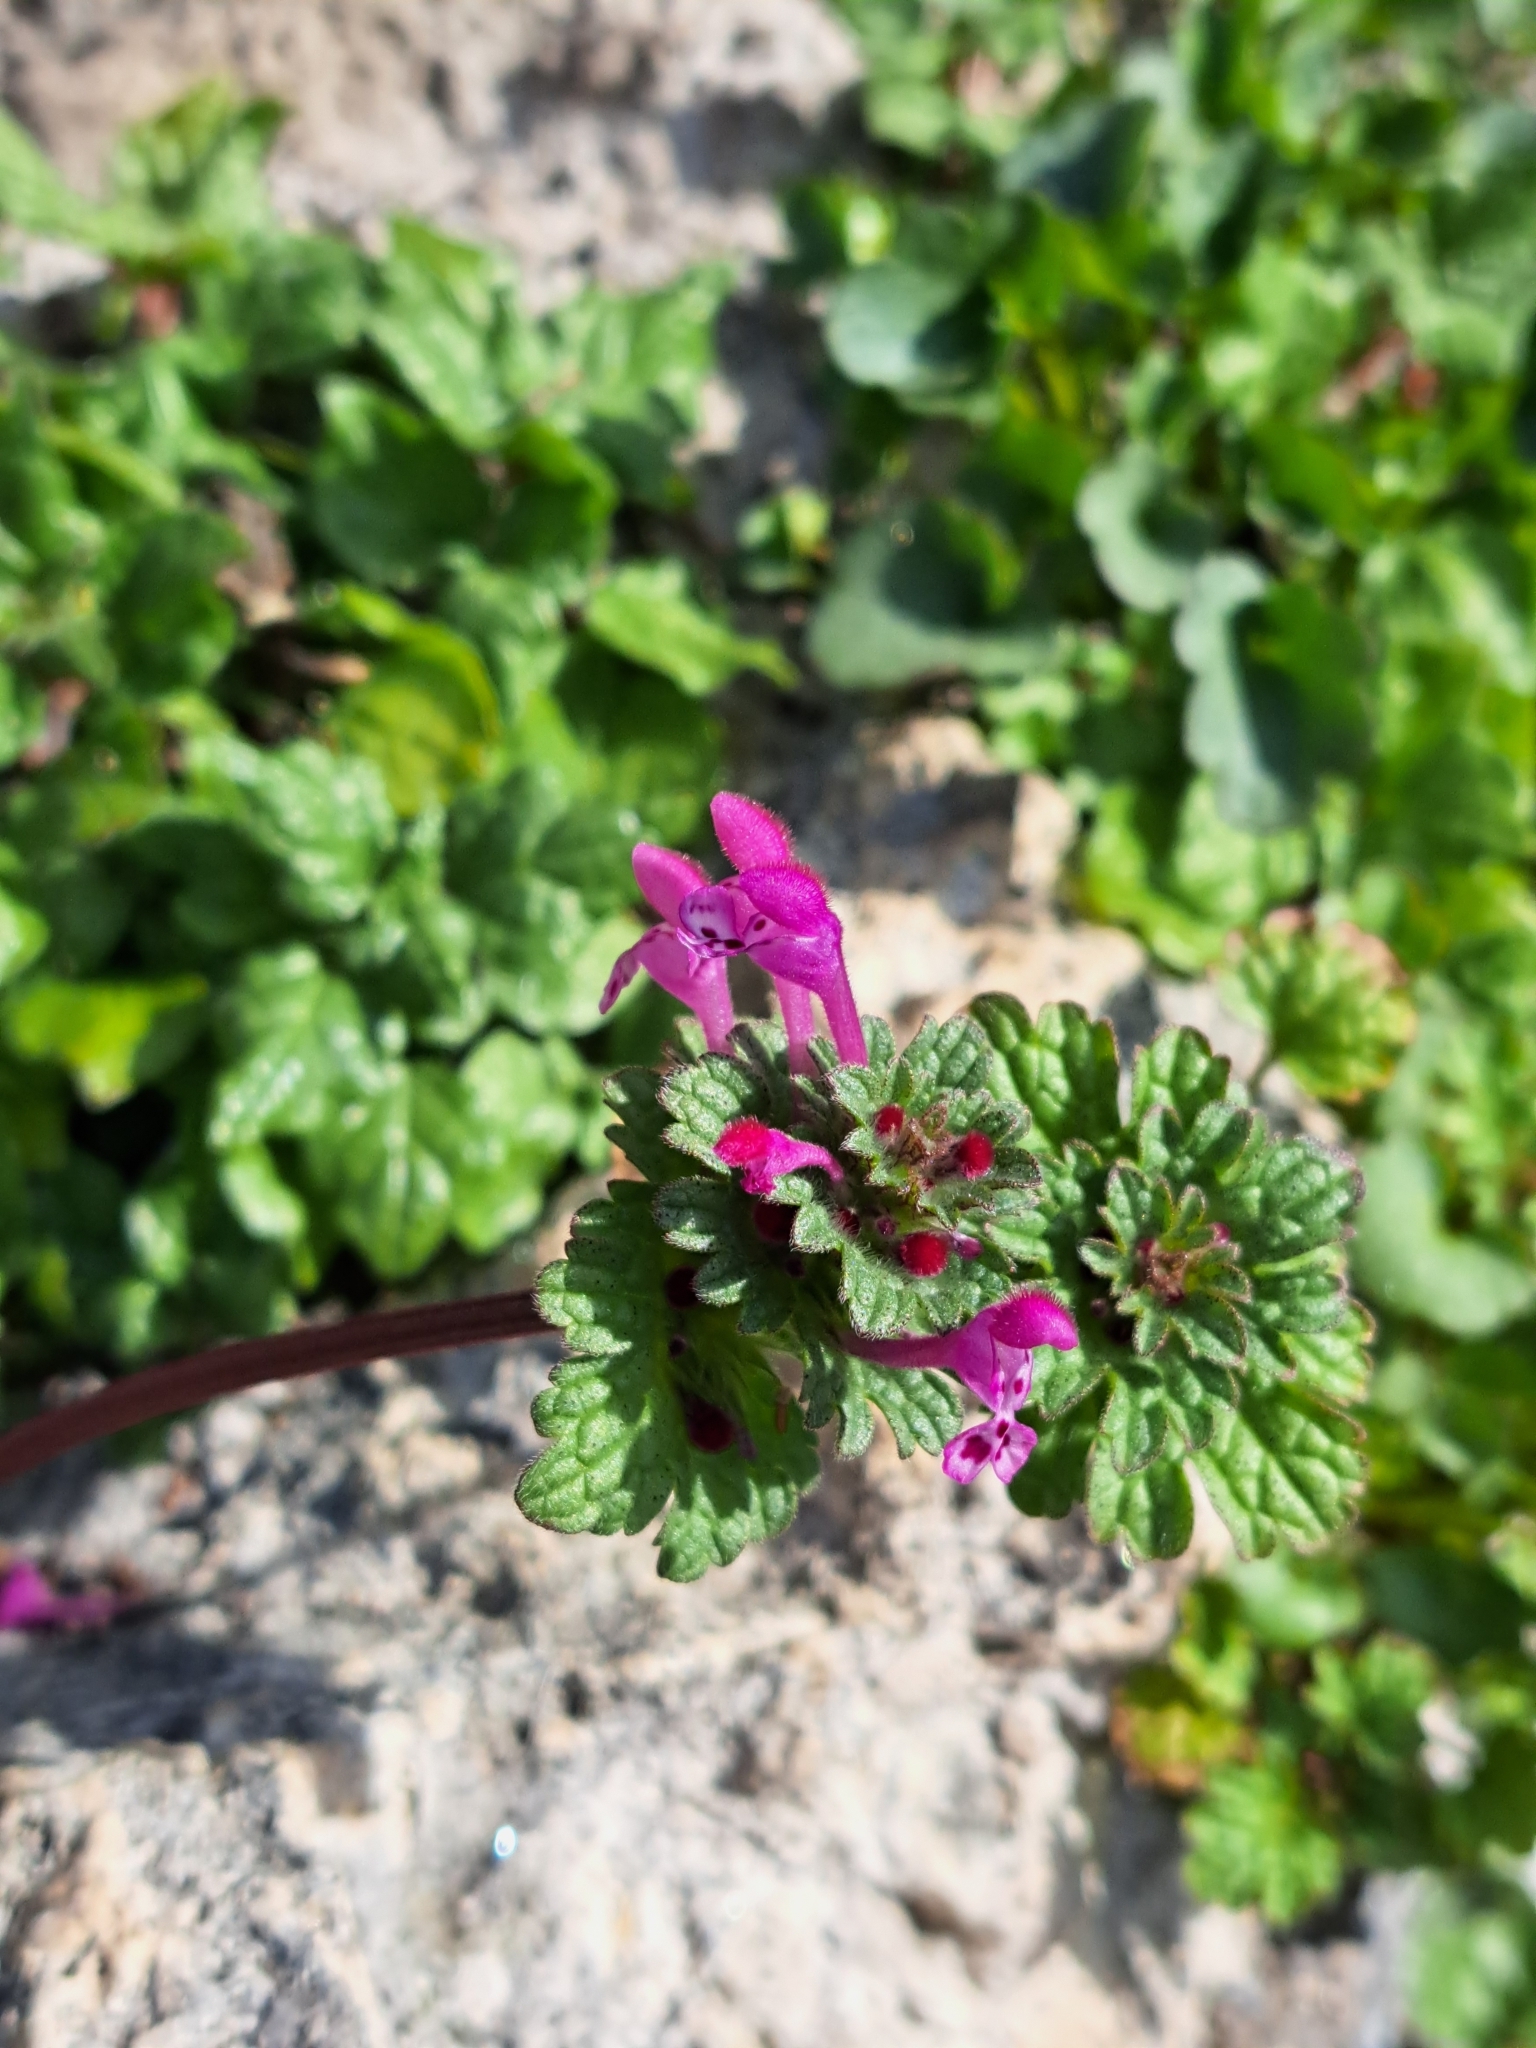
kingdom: Plantae
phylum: Tracheophyta
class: Magnoliopsida
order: Lamiales
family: Lamiaceae
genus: Lamium
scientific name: Lamium amplexicaule
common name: Henbit dead-nettle
